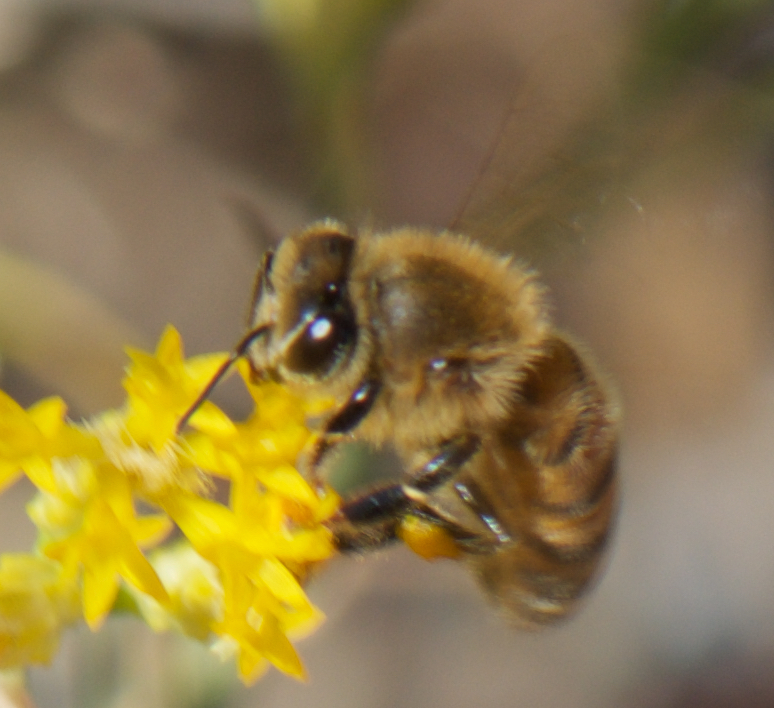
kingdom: Animalia
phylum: Arthropoda
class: Insecta
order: Hymenoptera
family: Apidae
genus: Apis
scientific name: Apis mellifera
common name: Honey bee
